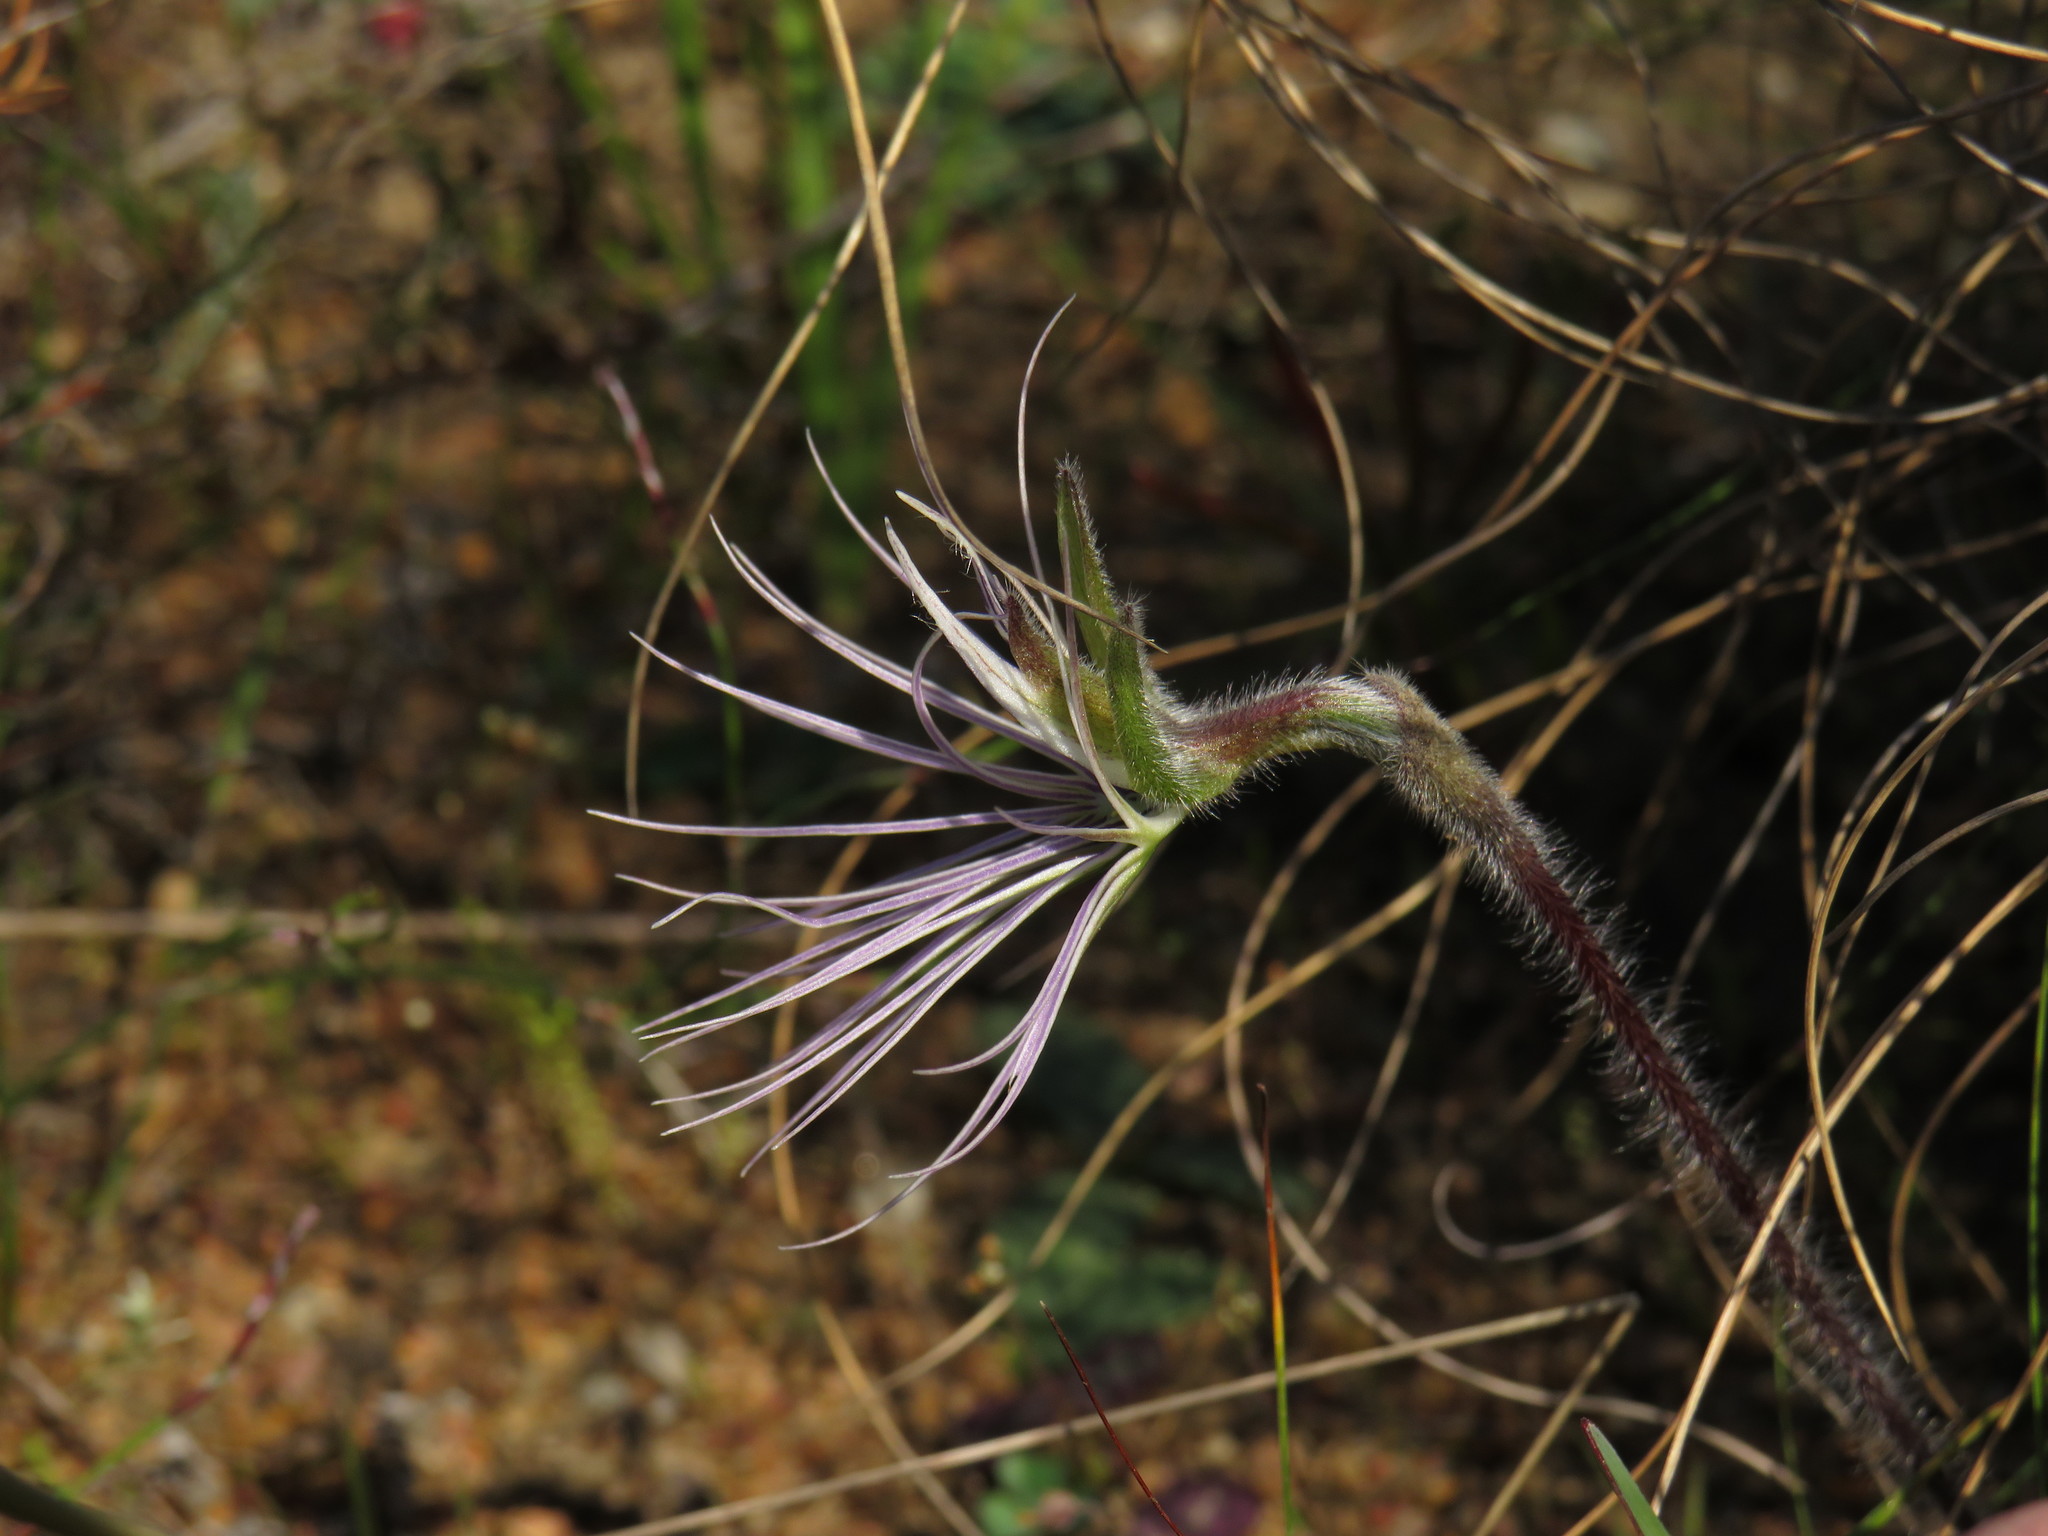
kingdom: Plantae
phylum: Tracheophyta
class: Liliopsida
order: Asparagales
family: Orchidaceae
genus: Holothrix
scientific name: Holothrix burmanniana
